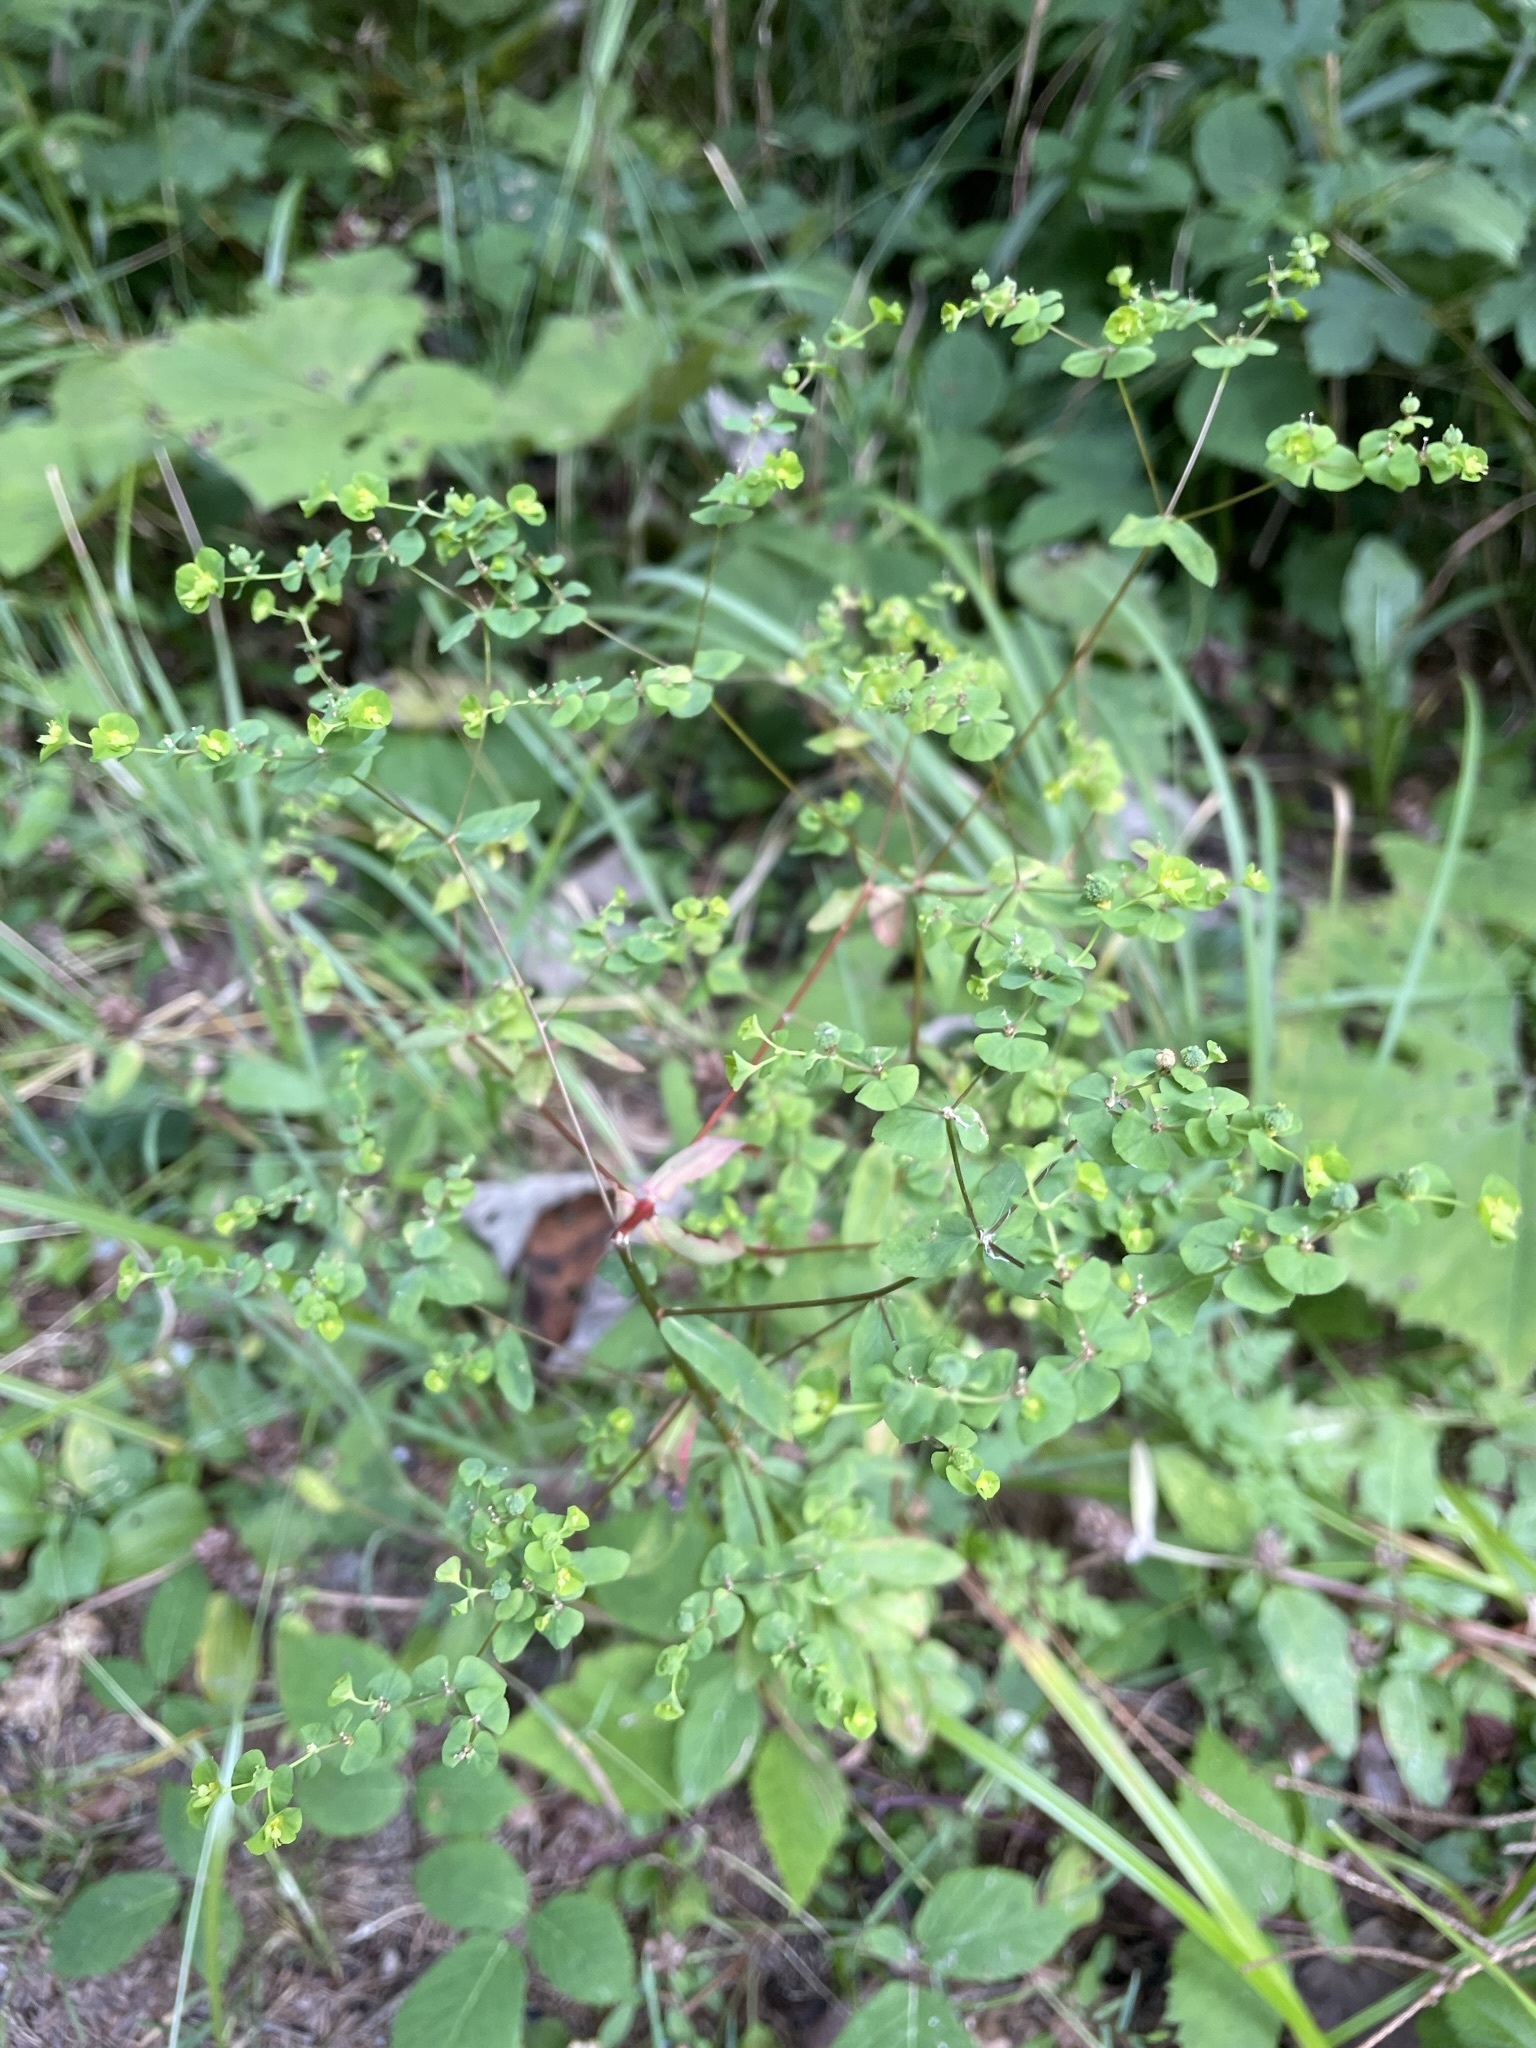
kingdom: Plantae
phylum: Tracheophyta
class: Magnoliopsida
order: Malpighiales
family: Euphorbiaceae
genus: Euphorbia
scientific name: Euphorbia stricta
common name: Upright spurge
